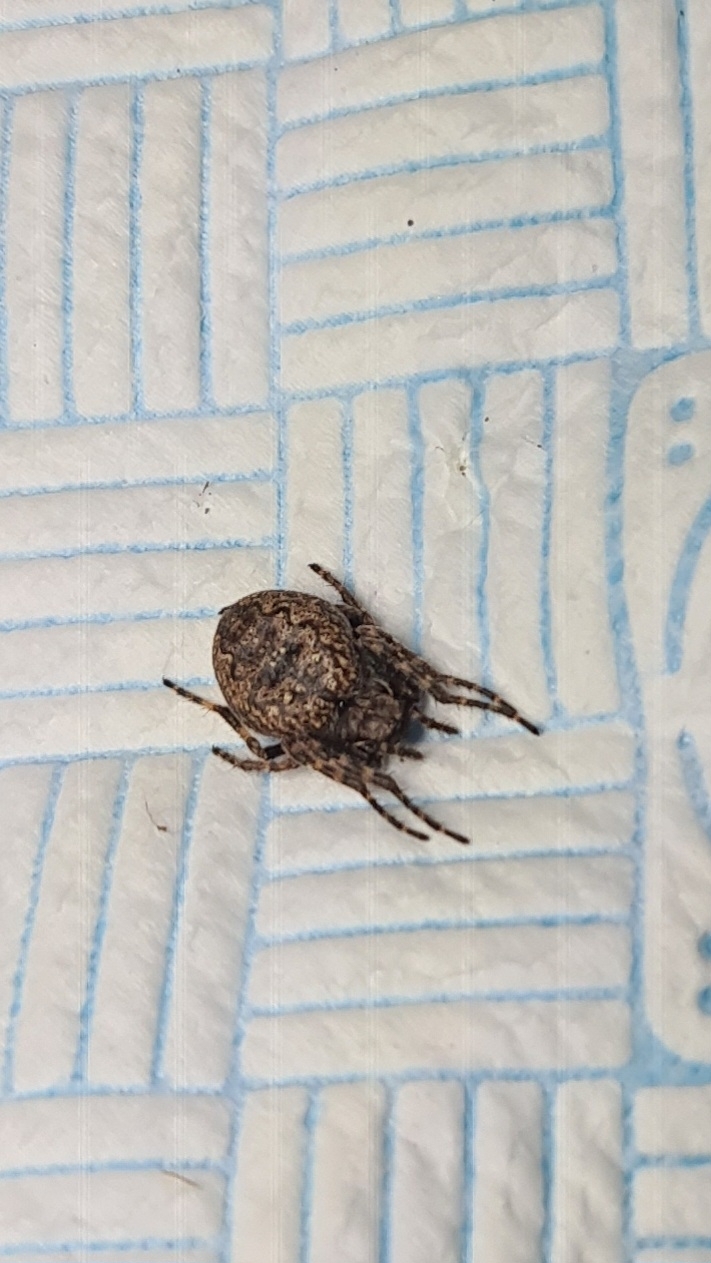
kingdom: Animalia
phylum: Arthropoda
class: Arachnida
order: Araneae
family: Araneidae
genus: Nuctenea
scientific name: Nuctenea umbratica
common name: Toad spider
